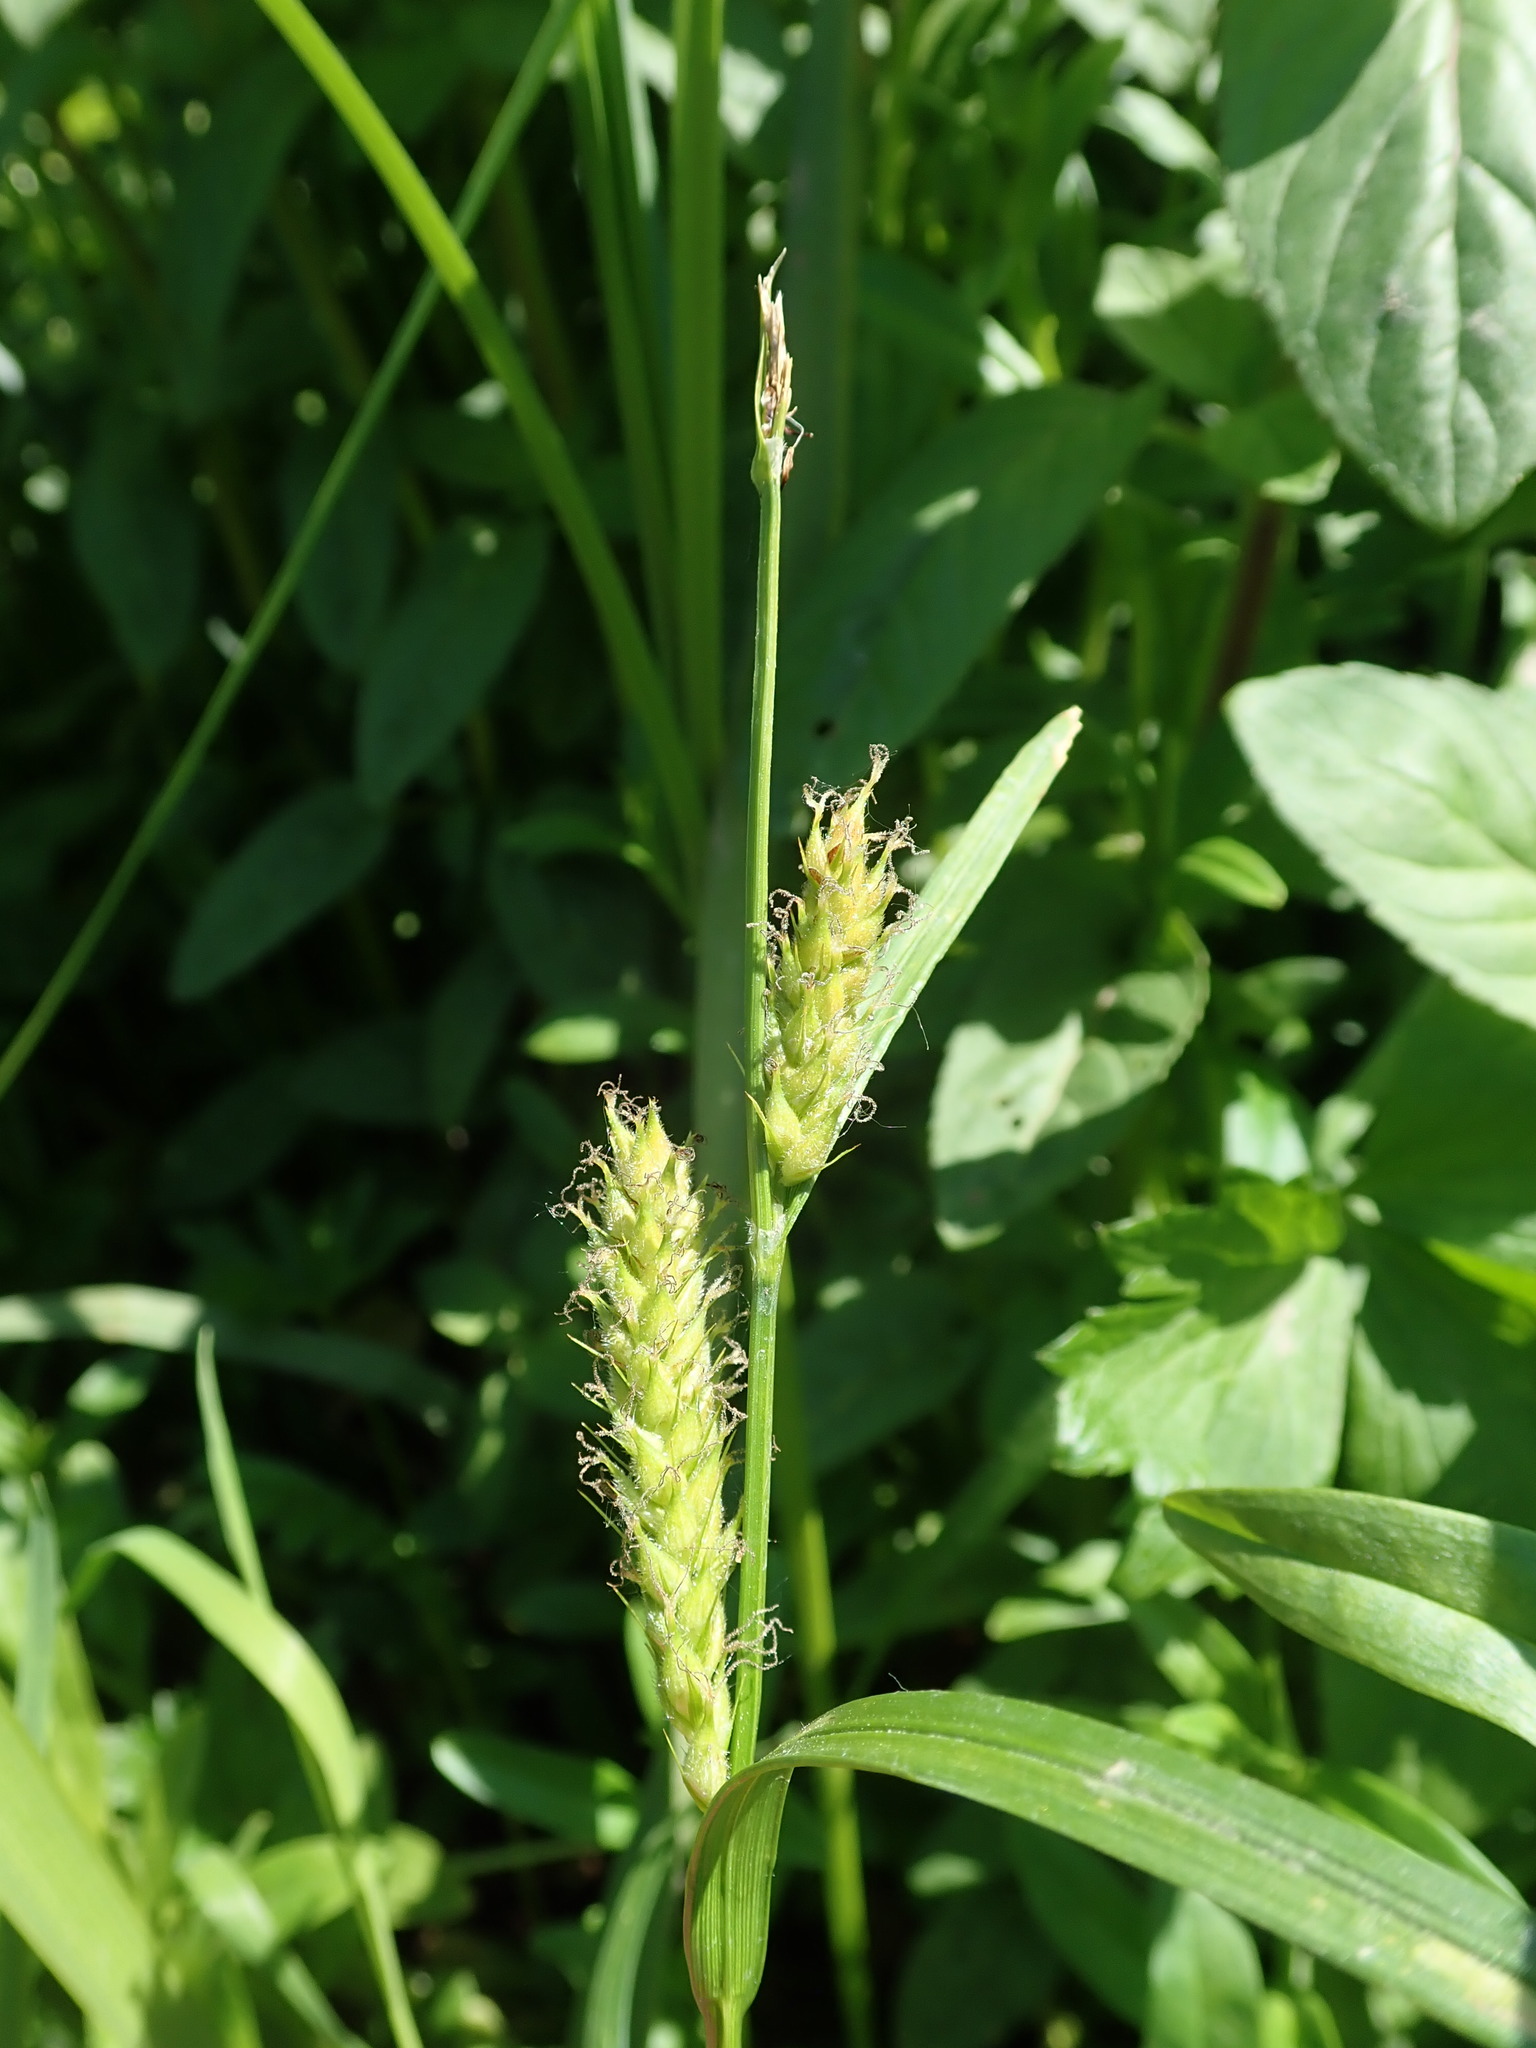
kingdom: Plantae
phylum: Tracheophyta
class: Liliopsida
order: Poales
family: Cyperaceae
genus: Carex
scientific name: Carex hirta
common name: Hairy sedge
